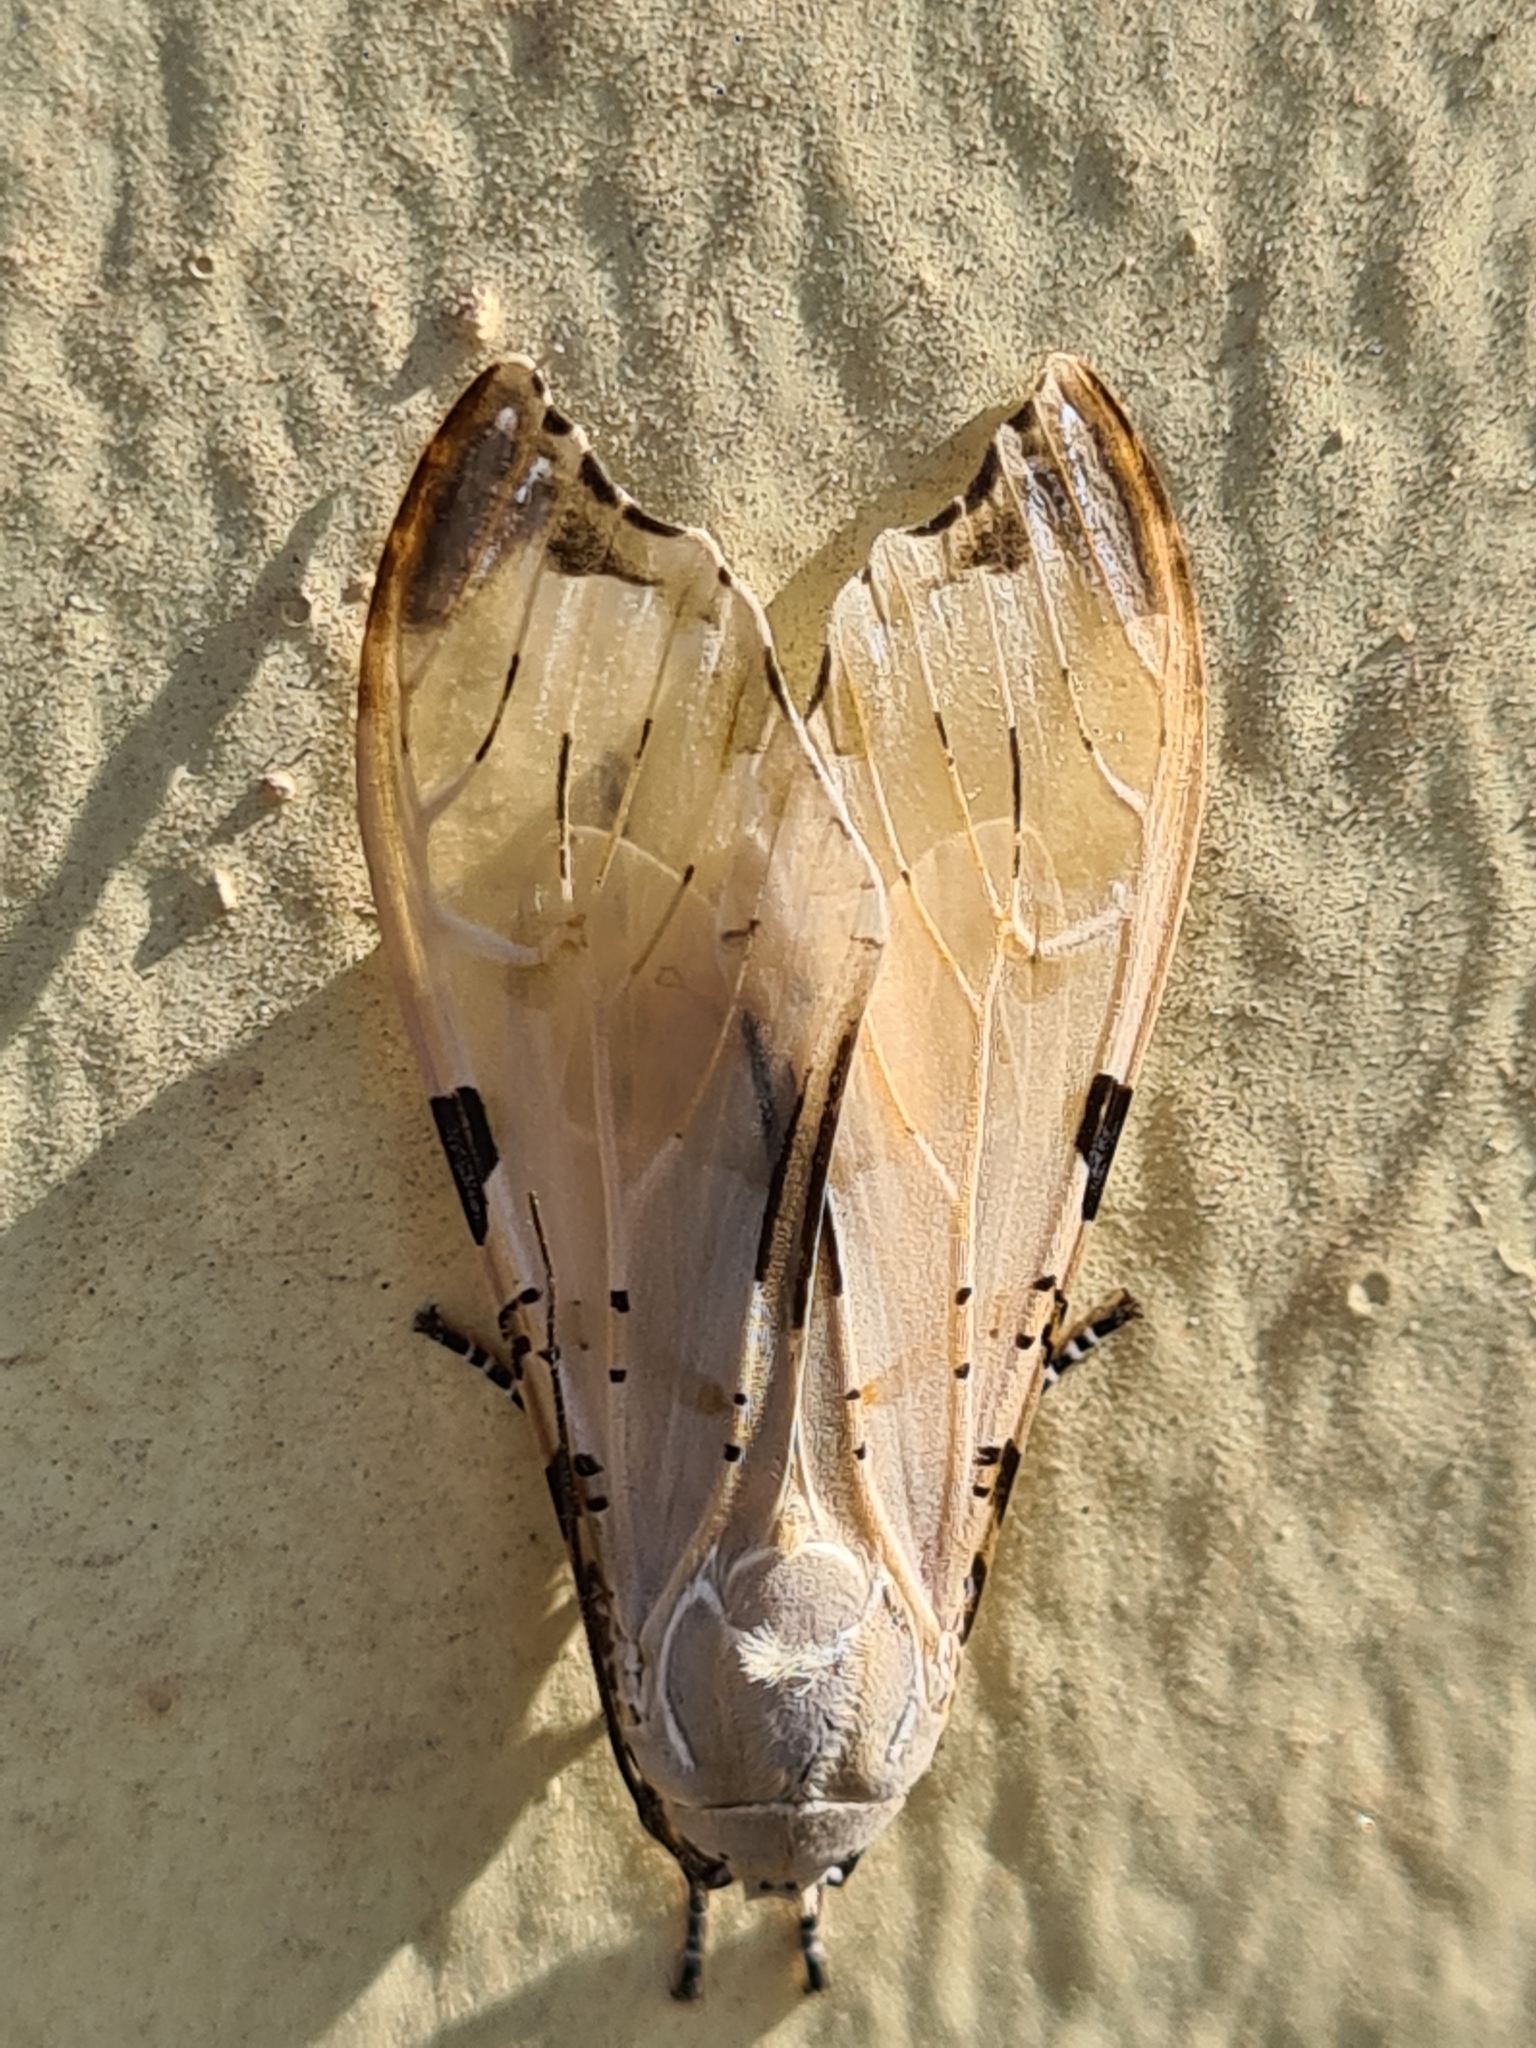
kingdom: Animalia
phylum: Arthropoda
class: Insecta
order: Lepidoptera
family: Erebidae
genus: Psychophasma
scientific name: Psychophasma erosa
